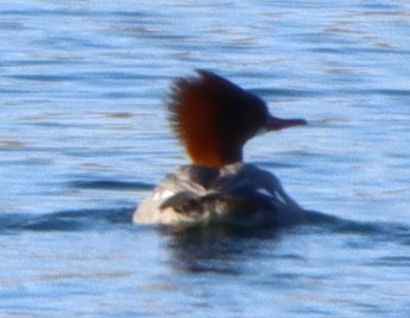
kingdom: Animalia
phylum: Chordata
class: Aves
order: Anseriformes
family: Anatidae
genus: Mergus
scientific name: Mergus merganser
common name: Common merganser
